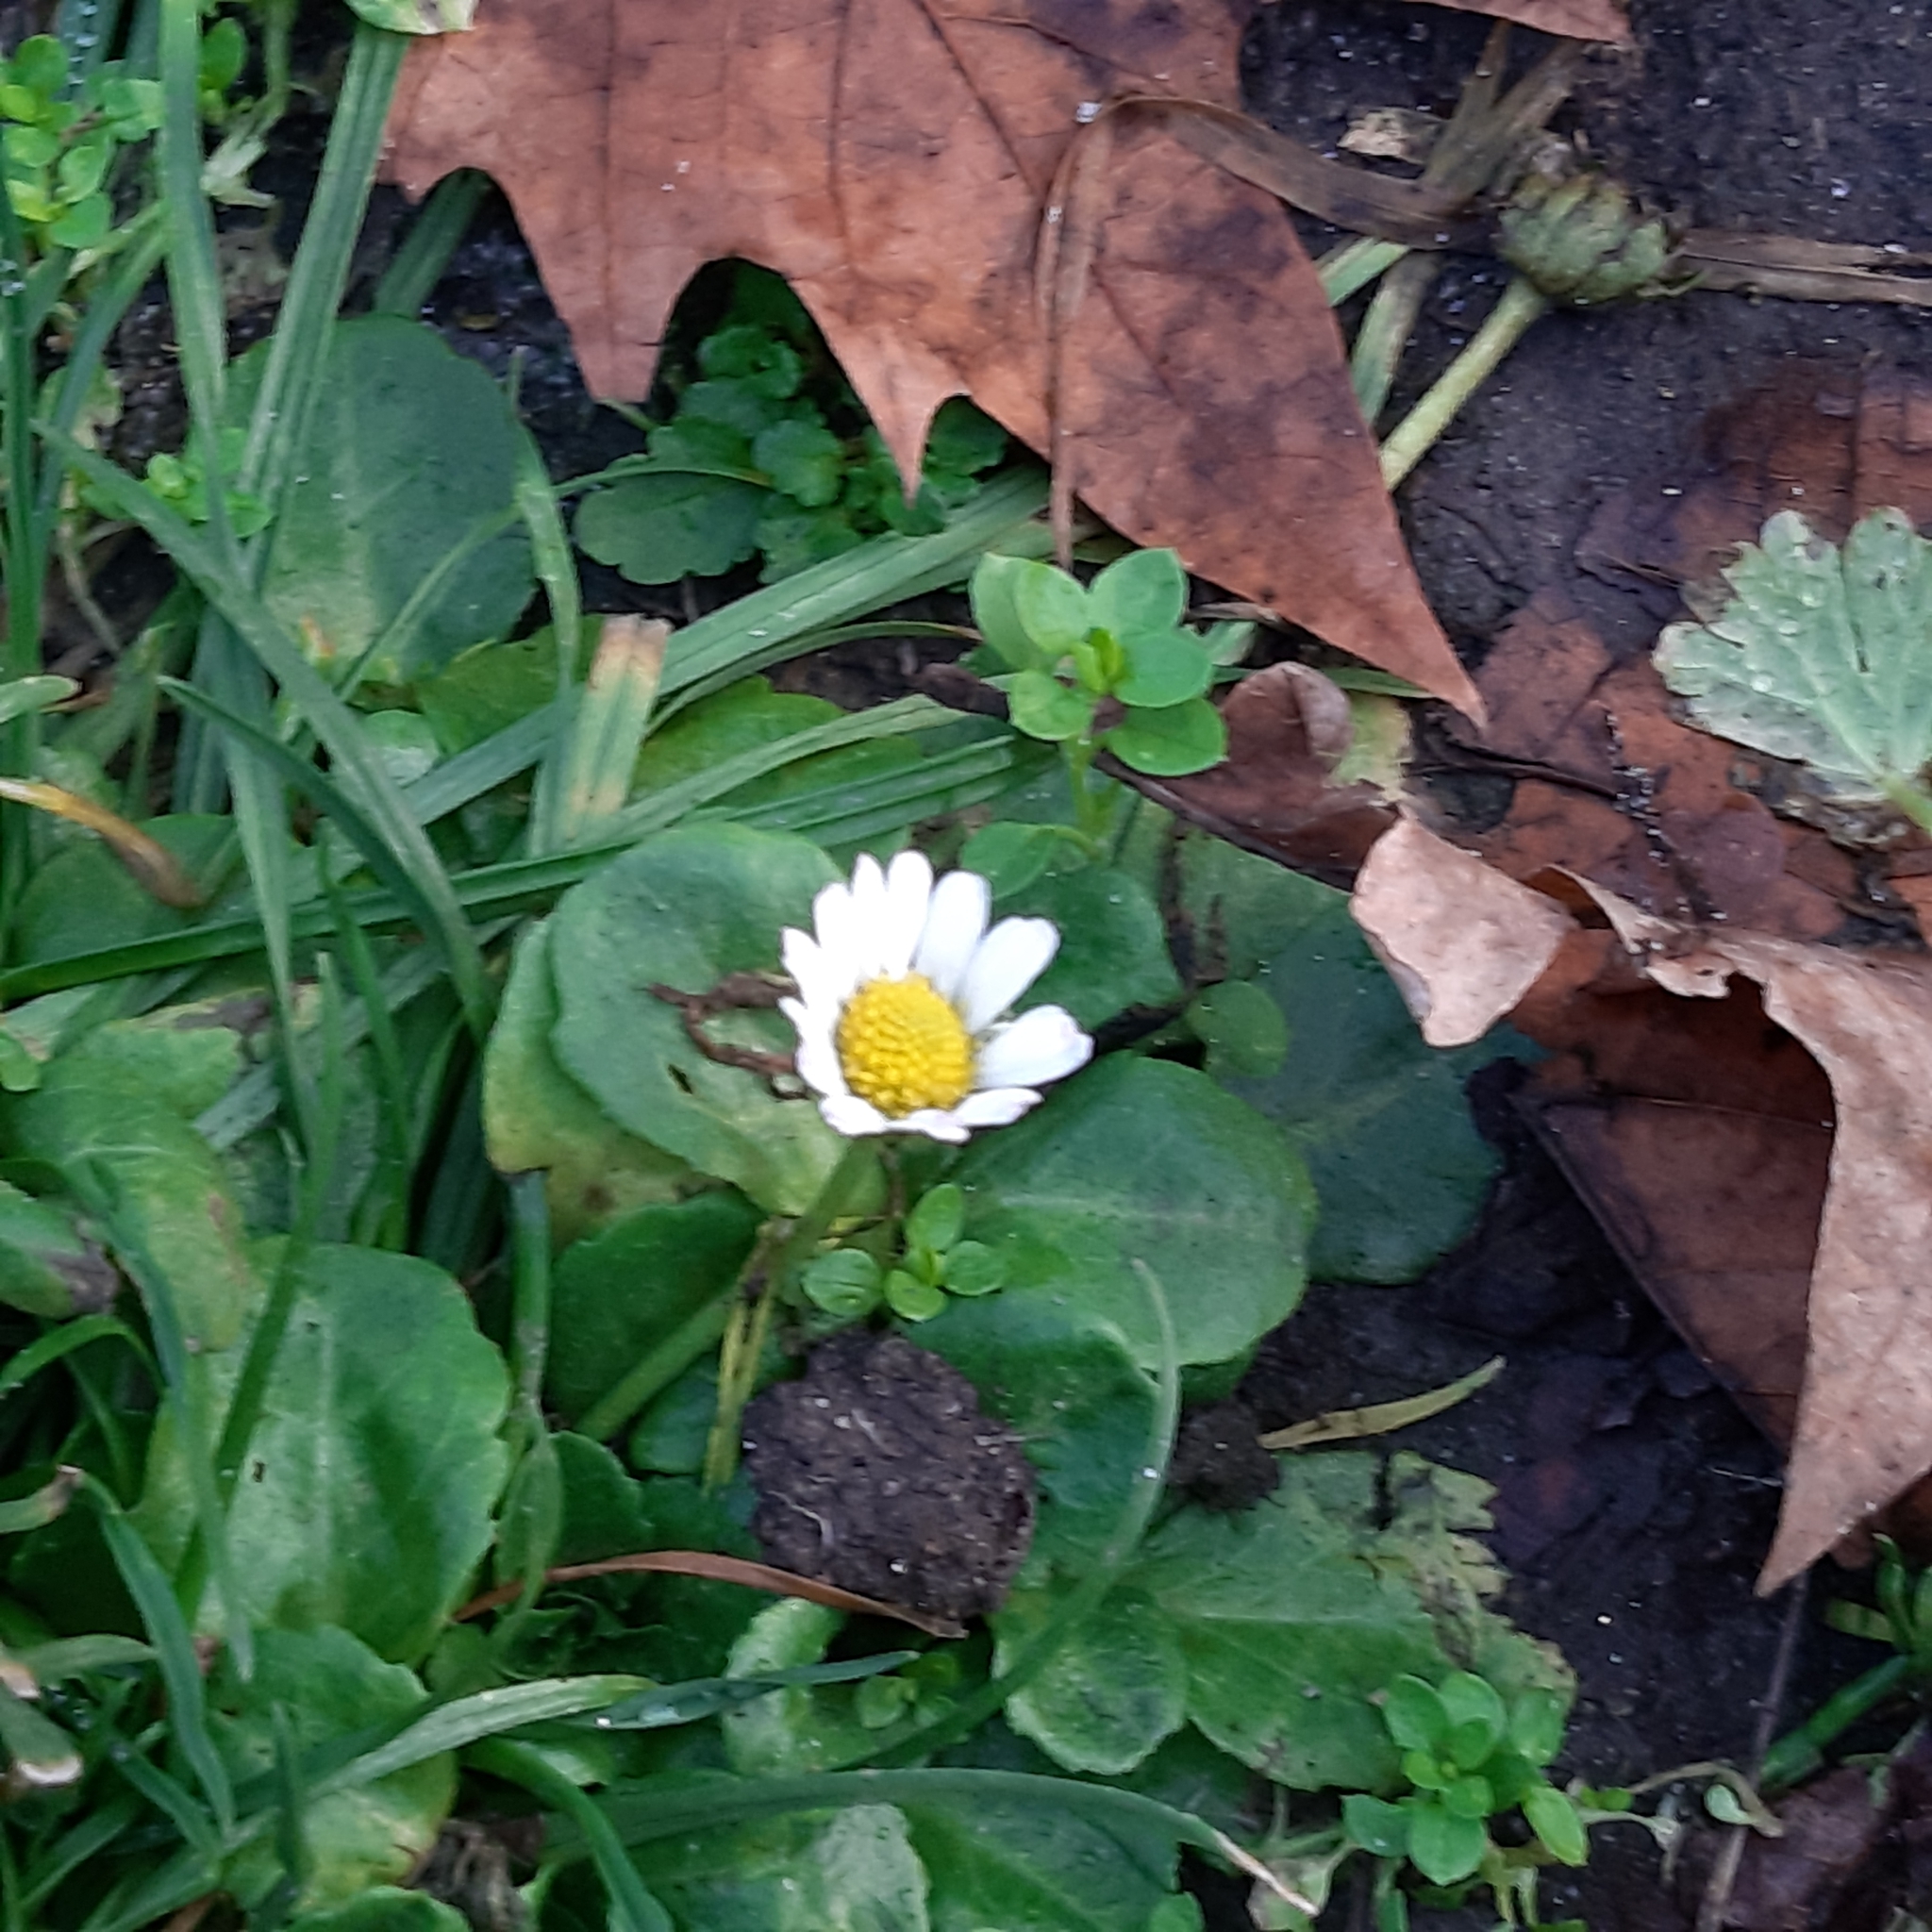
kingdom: Plantae
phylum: Tracheophyta
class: Magnoliopsida
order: Asterales
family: Asteraceae
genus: Bellis
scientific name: Bellis perennis
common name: Lawndaisy
